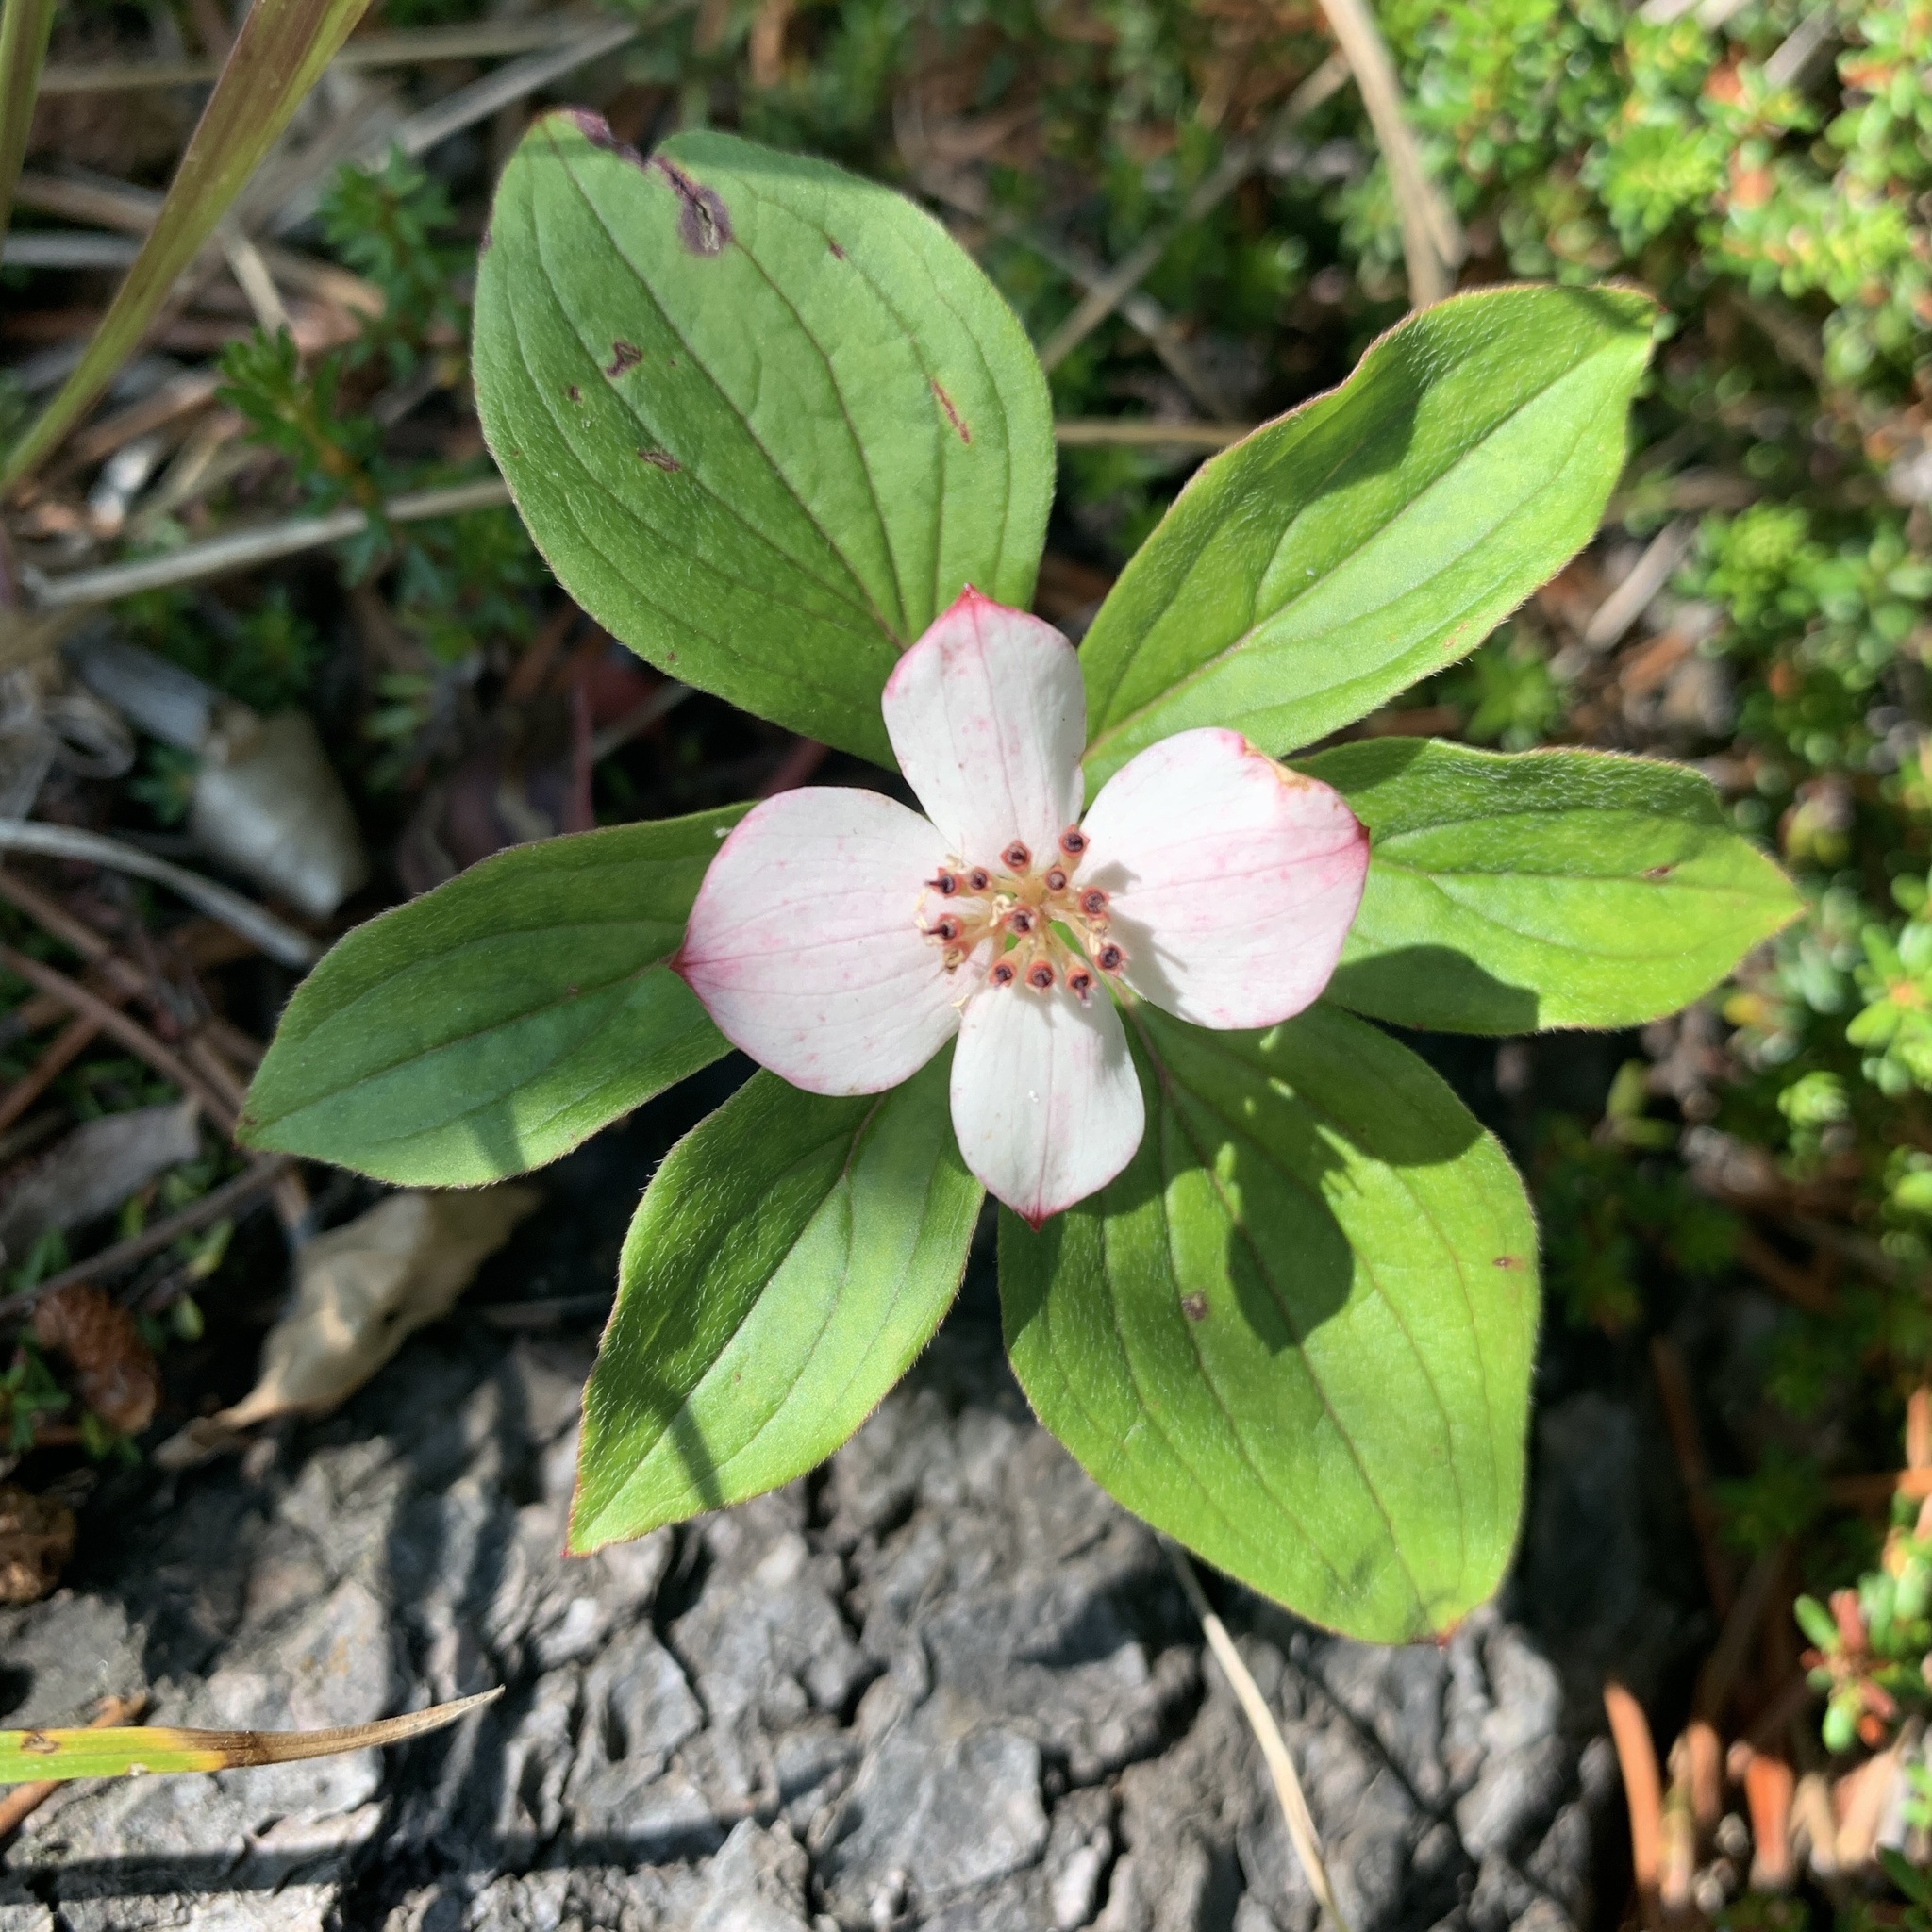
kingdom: Plantae
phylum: Tracheophyta
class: Magnoliopsida
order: Cornales
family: Cornaceae
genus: Cornus
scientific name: Cornus canadensis
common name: Creeping dogwood
